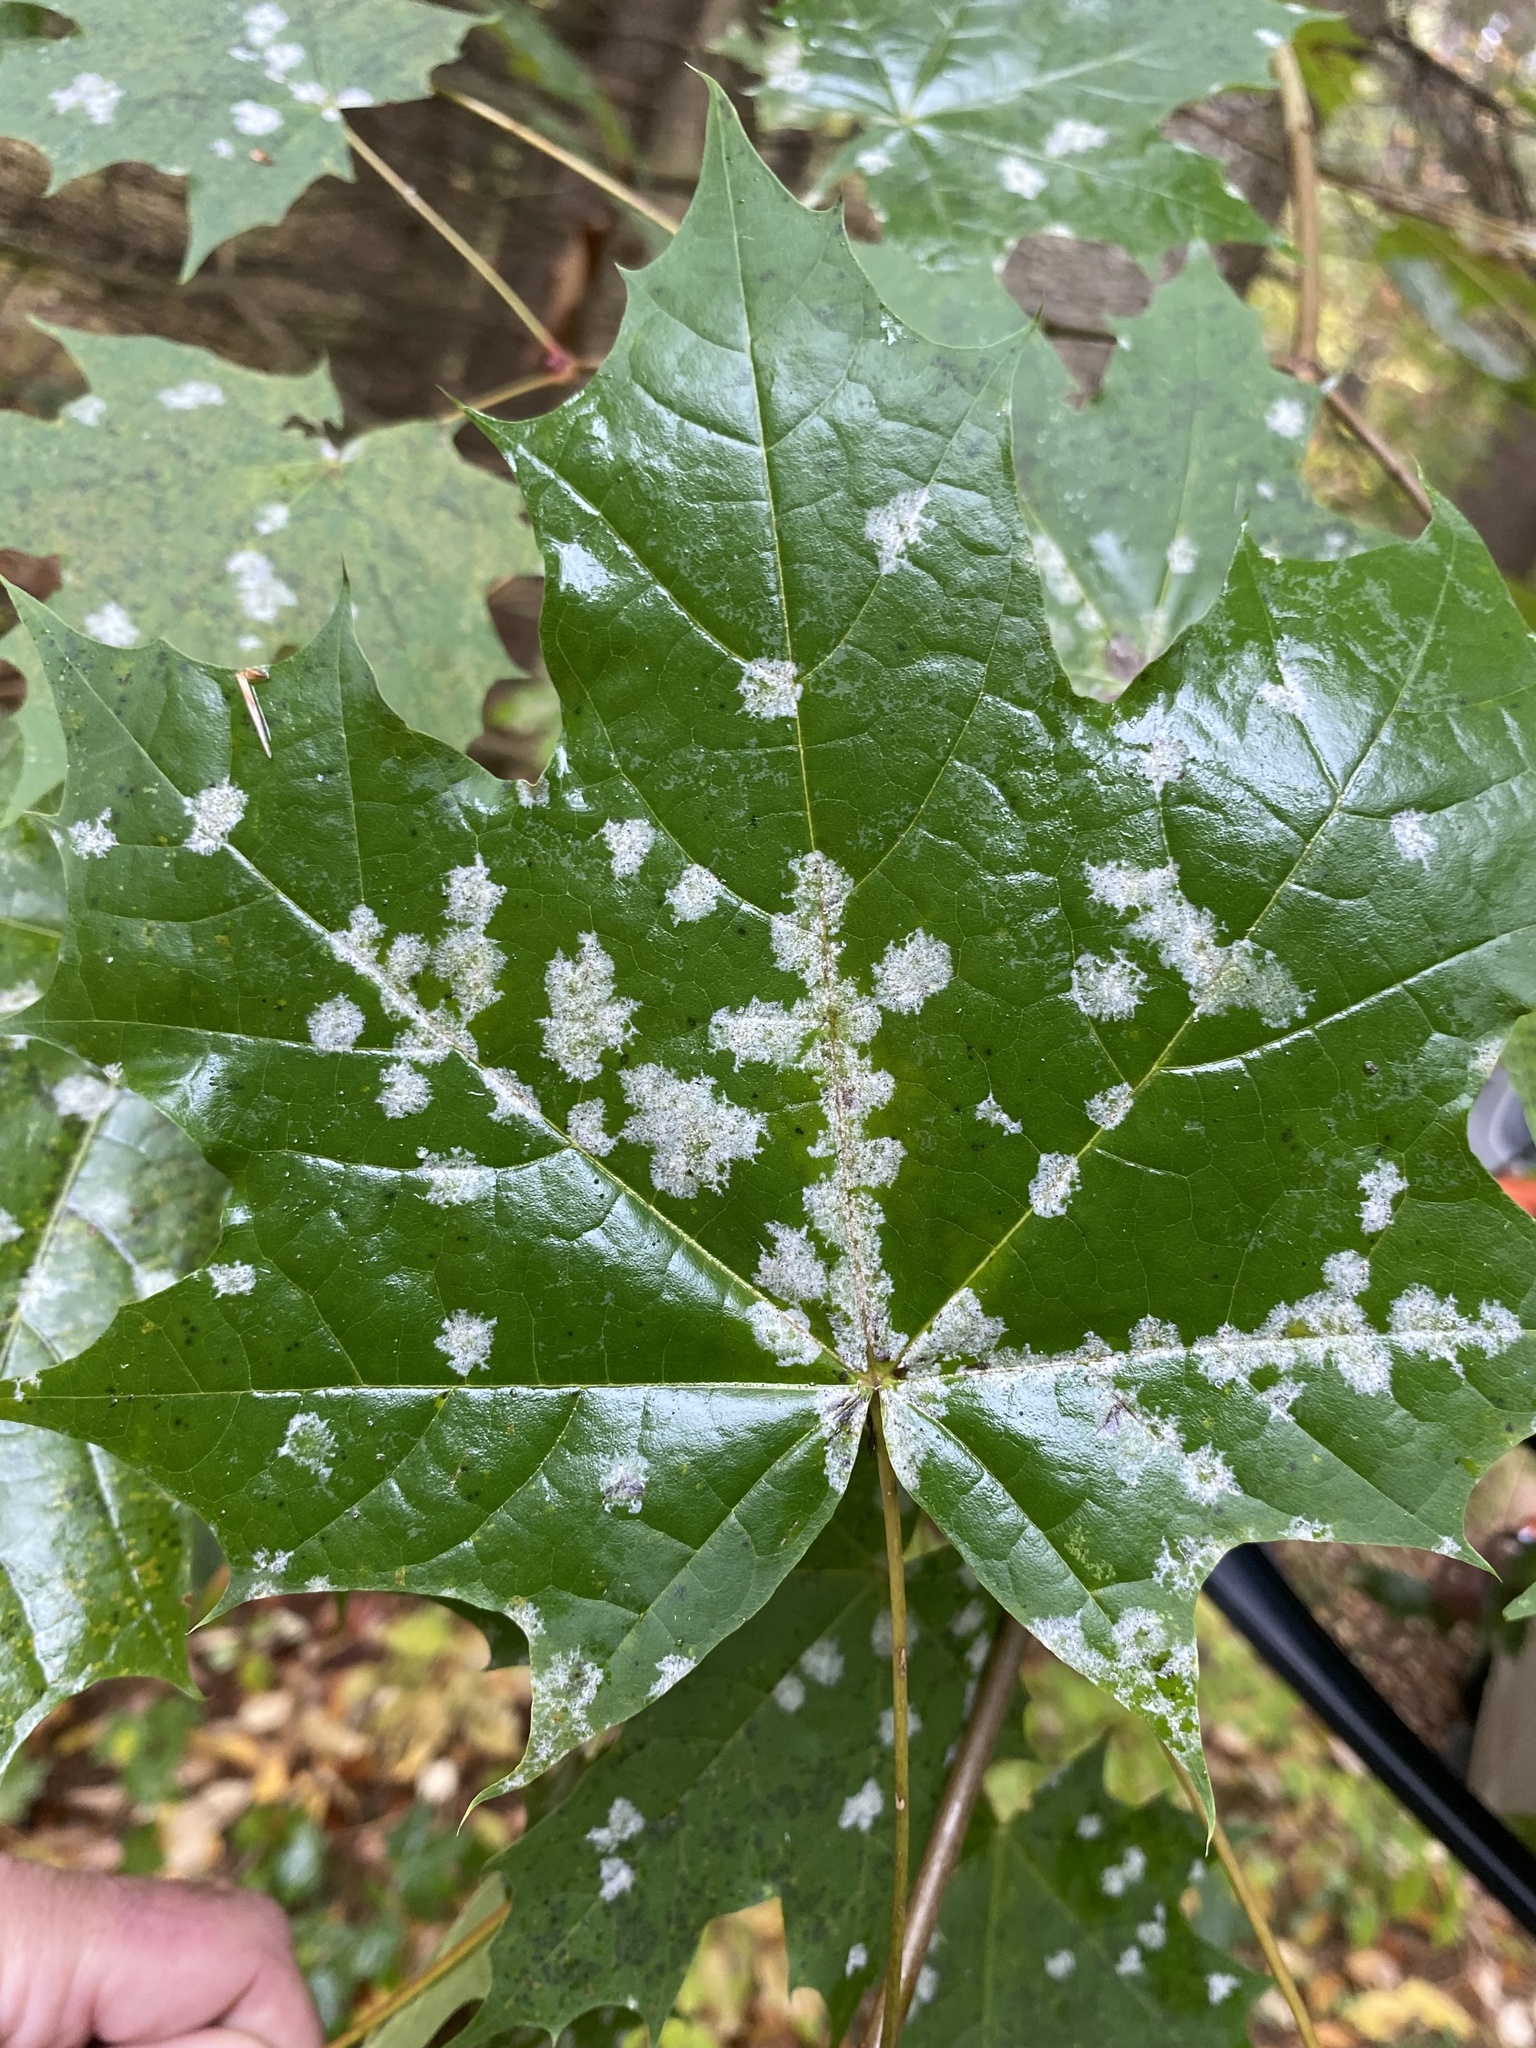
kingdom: Fungi
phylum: Ascomycota
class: Leotiomycetes
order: Helotiales
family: Erysiphaceae
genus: Sawadaea
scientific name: Sawadaea tulasnei
